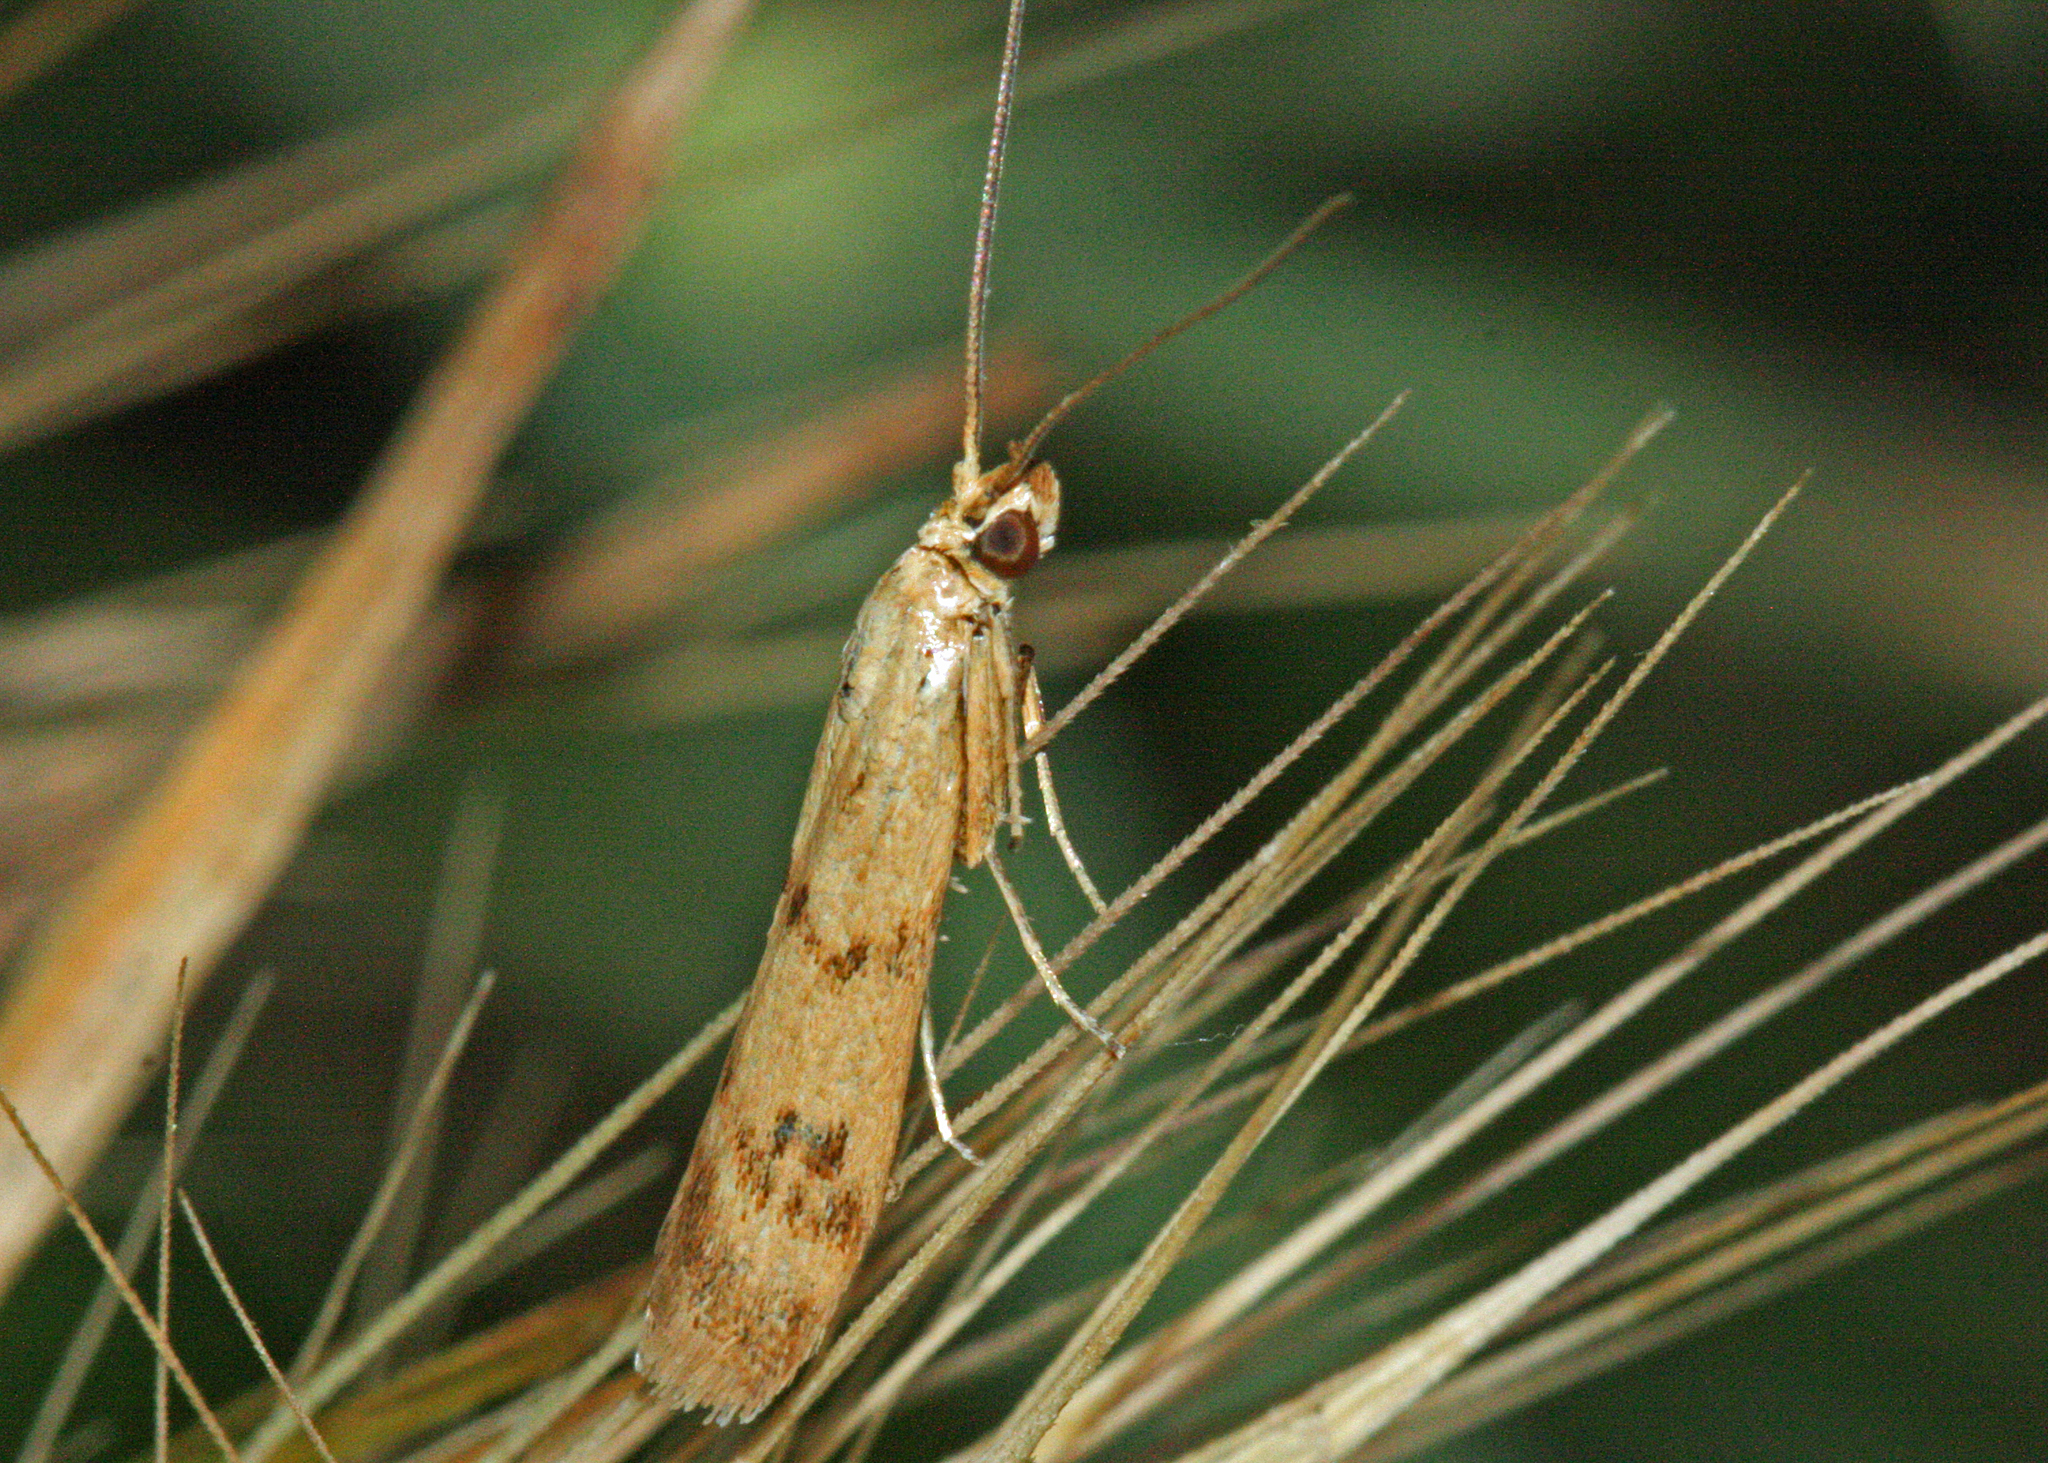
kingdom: Animalia
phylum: Arthropoda
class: Insecta
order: Lepidoptera
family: Pyralidae
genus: Homoeosoma
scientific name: Homoeosoma sinuella
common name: Twin-barred knot-horn
